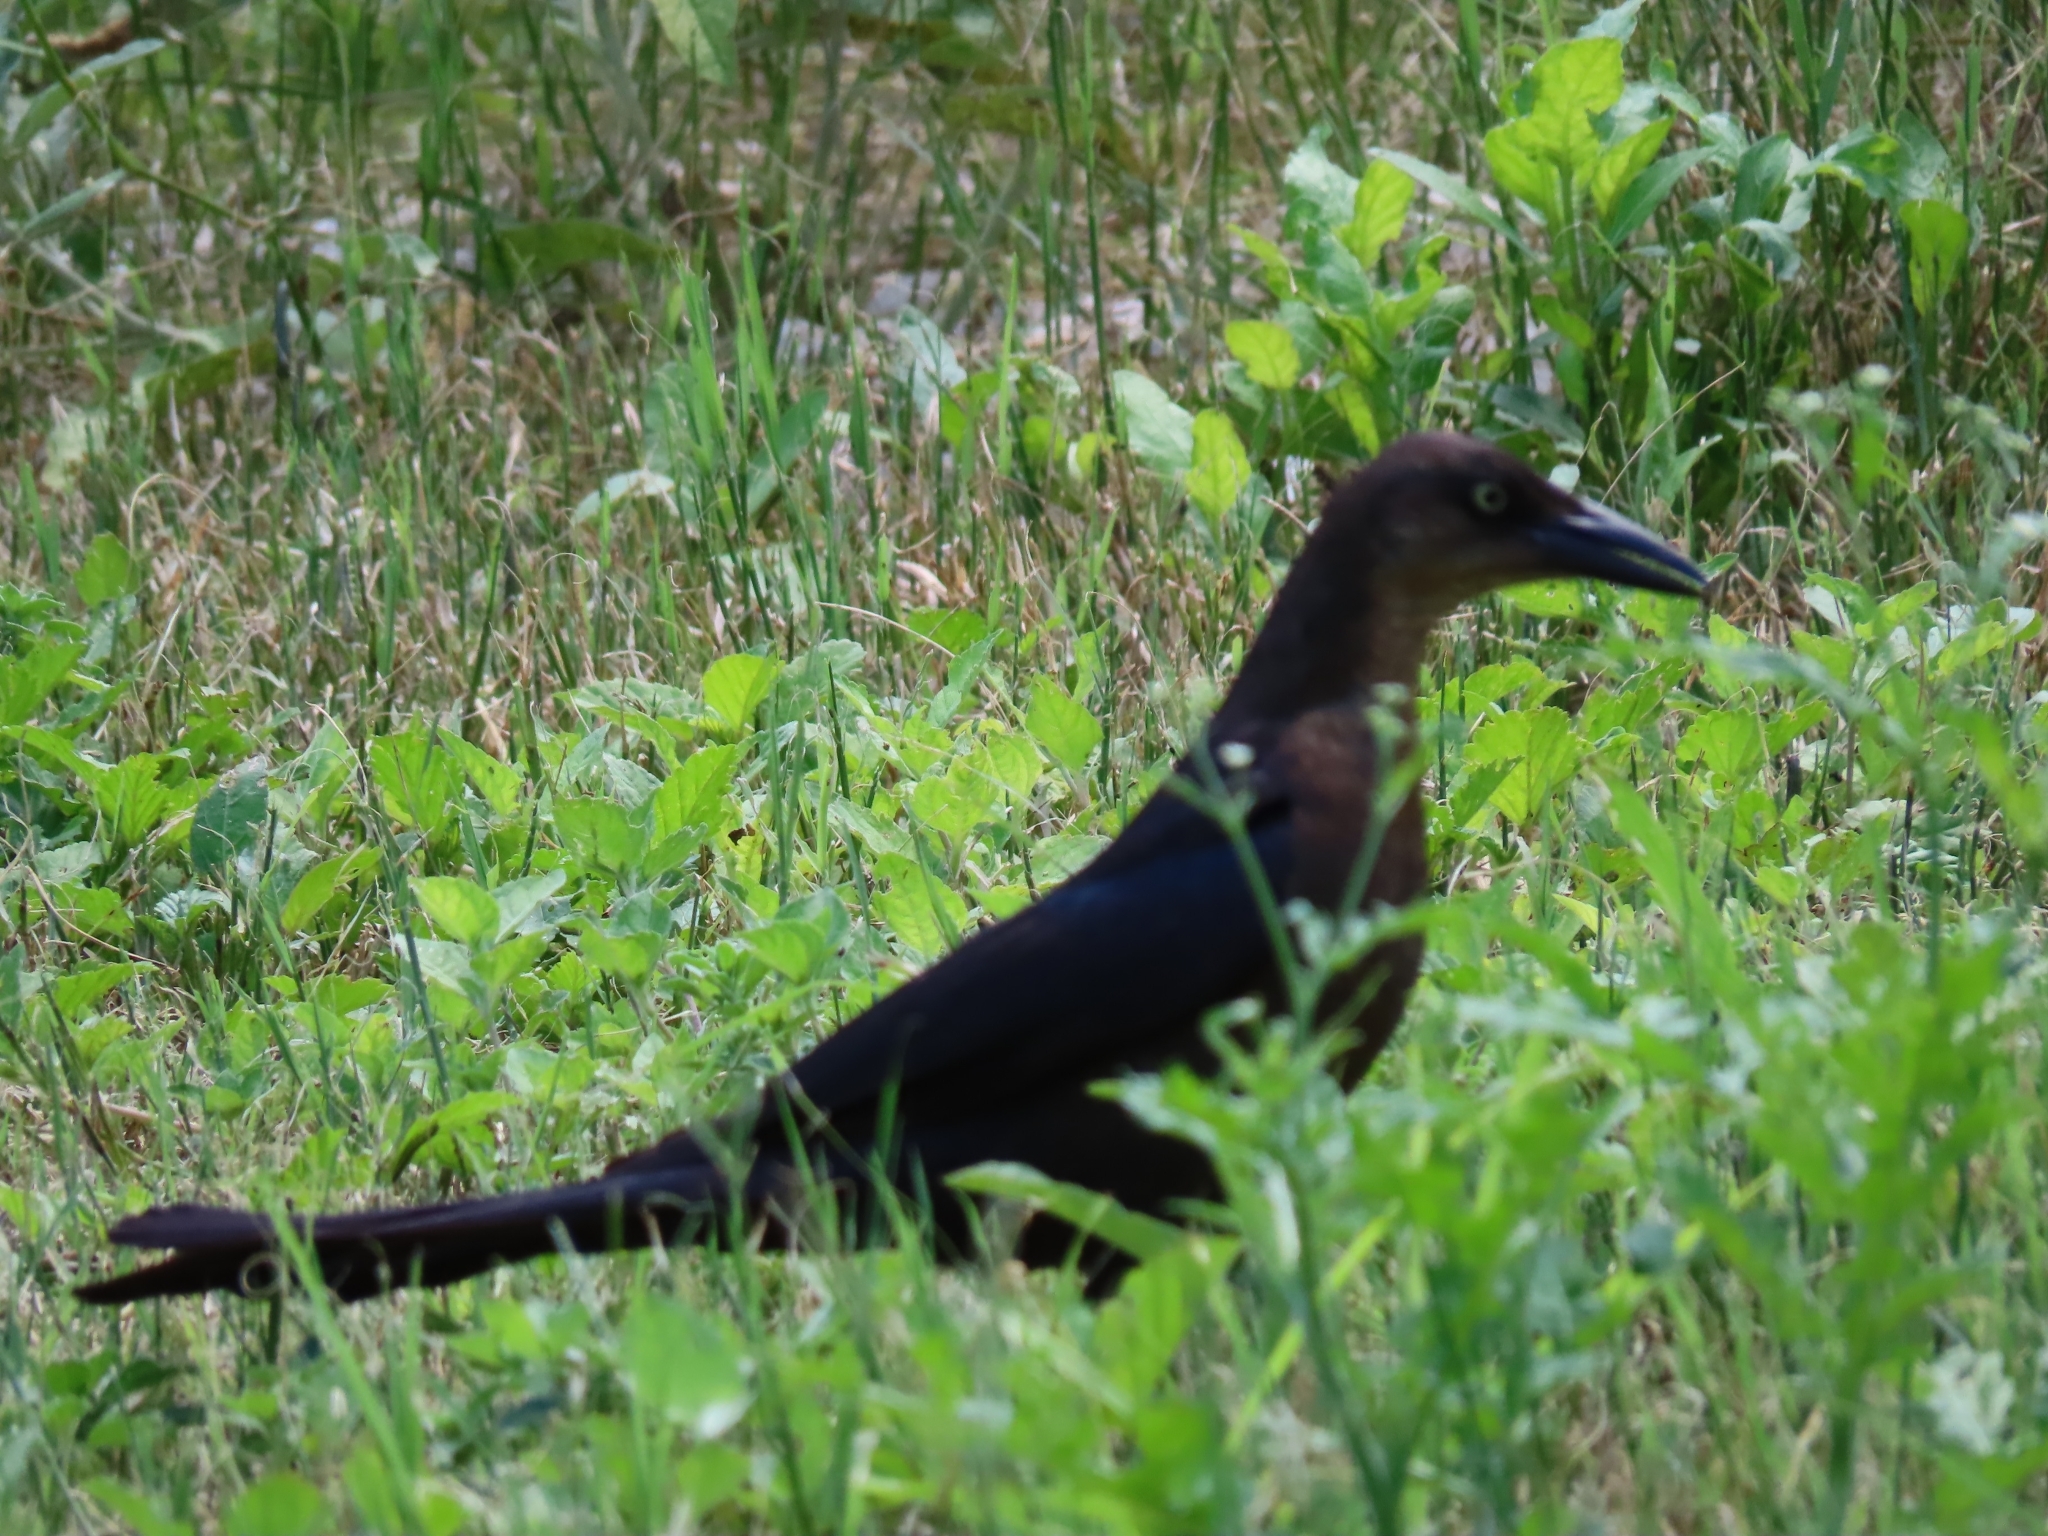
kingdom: Animalia
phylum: Chordata
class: Aves
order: Passeriformes
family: Icteridae
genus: Quiscalus
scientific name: Quiscalus mexicanus
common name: Great-tailed grackle
